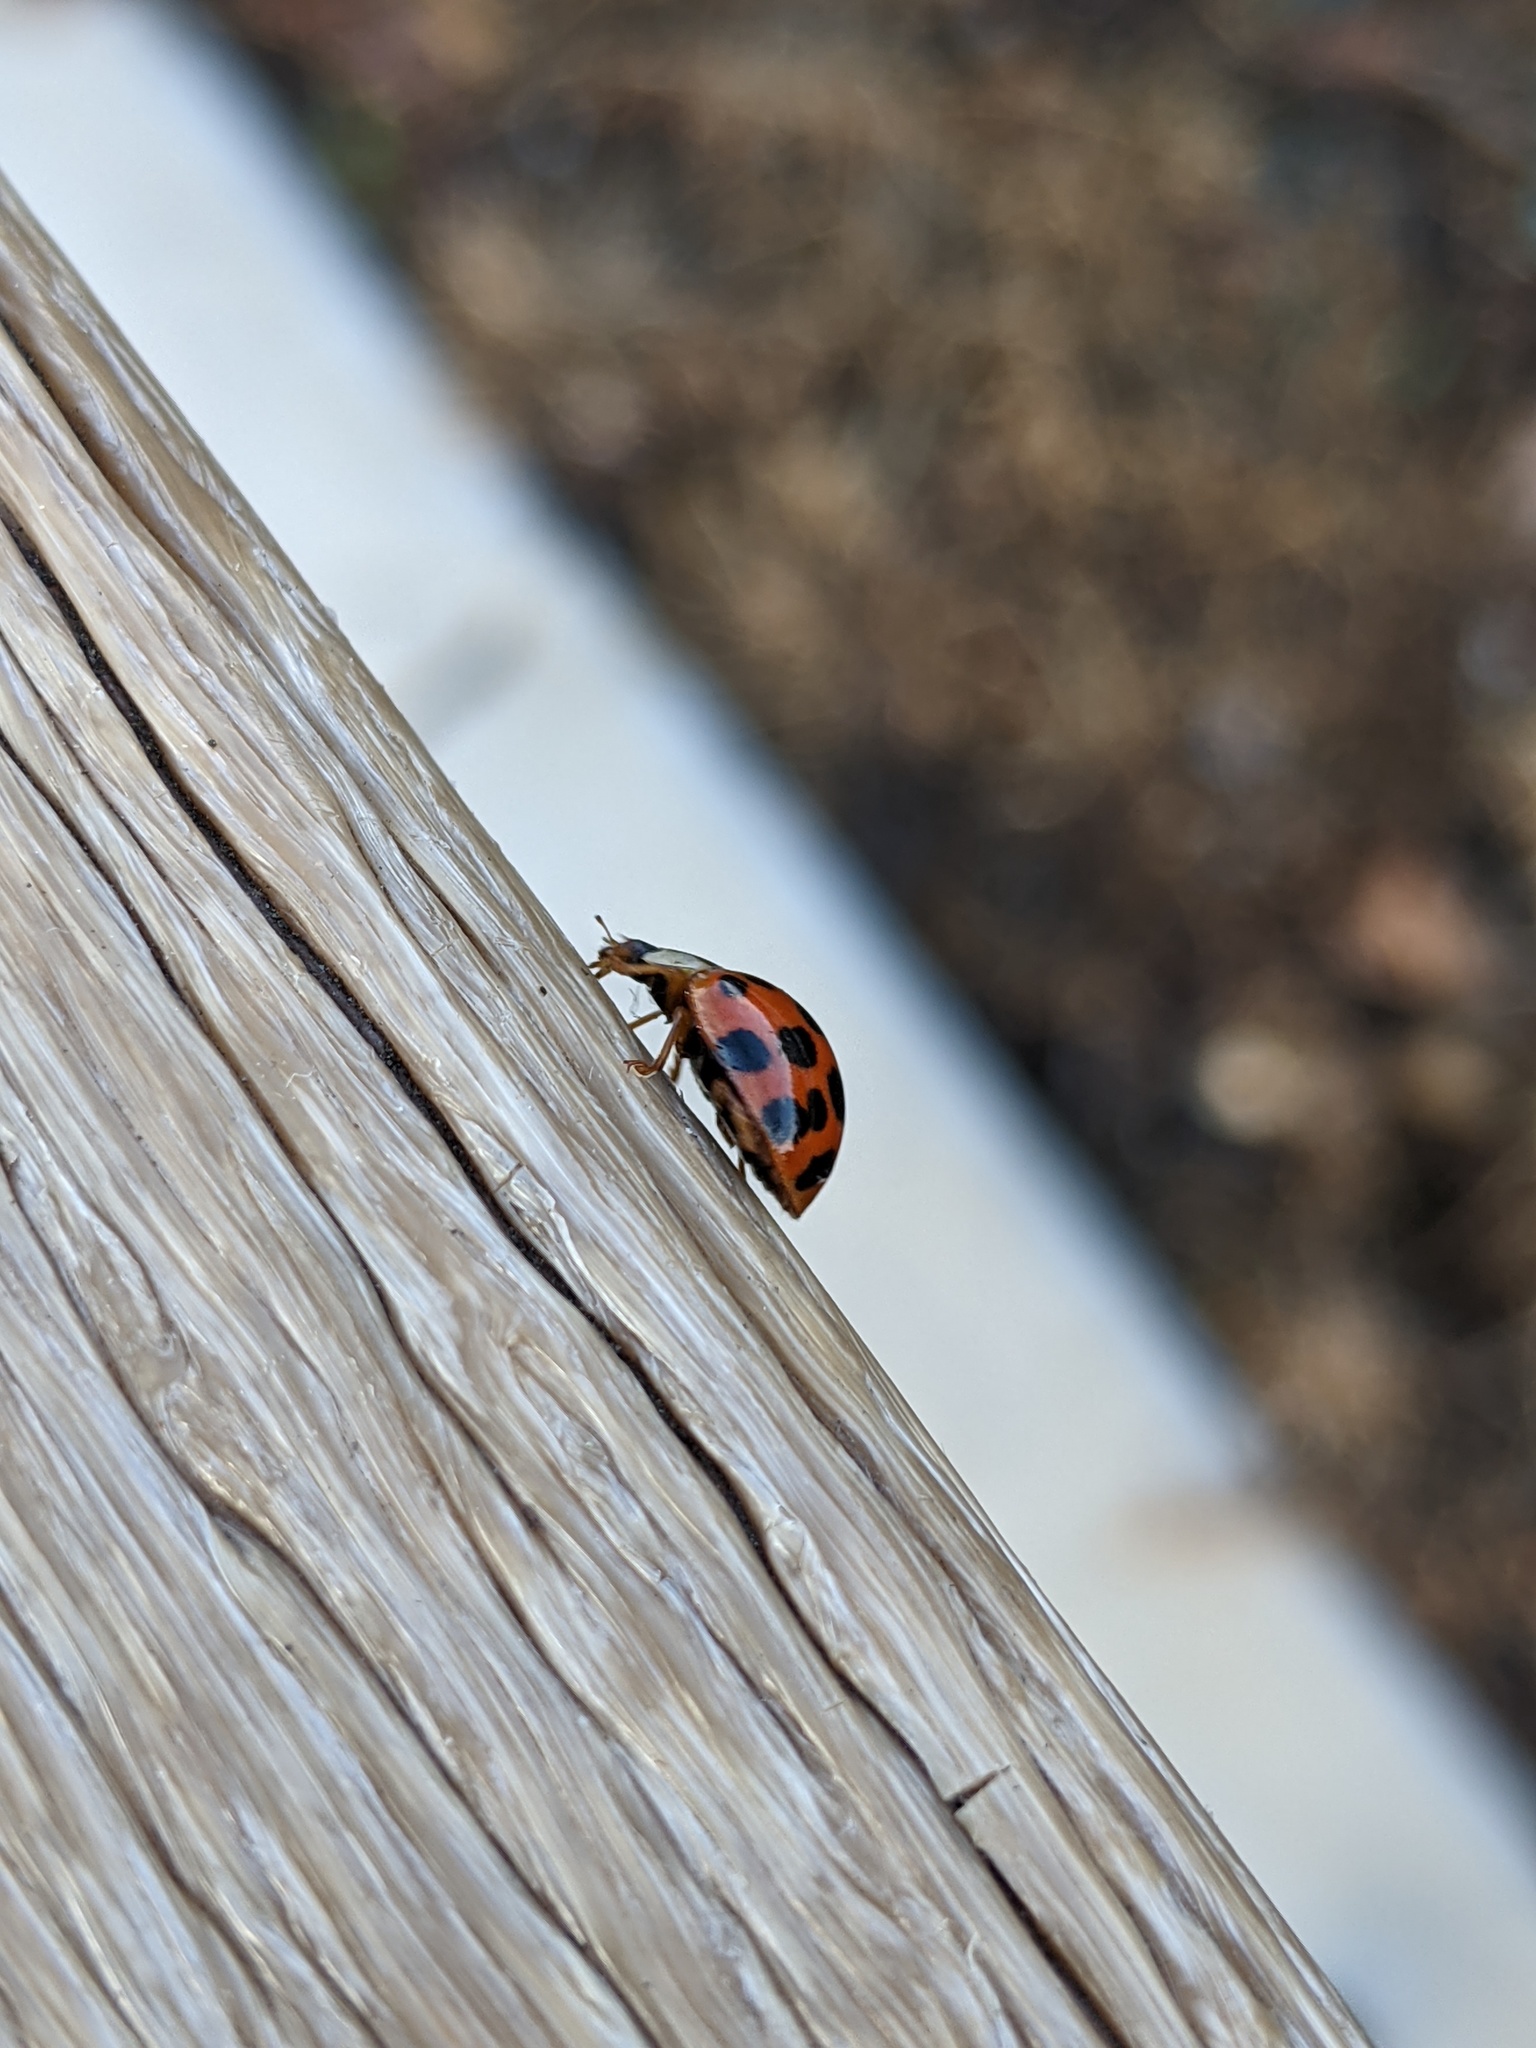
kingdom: Animalia
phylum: Arthropoda
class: Insecta
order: Coleoptera
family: Coccinellidae
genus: Harmonia
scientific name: Harmonia axyridis
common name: Harlequin ladybird
